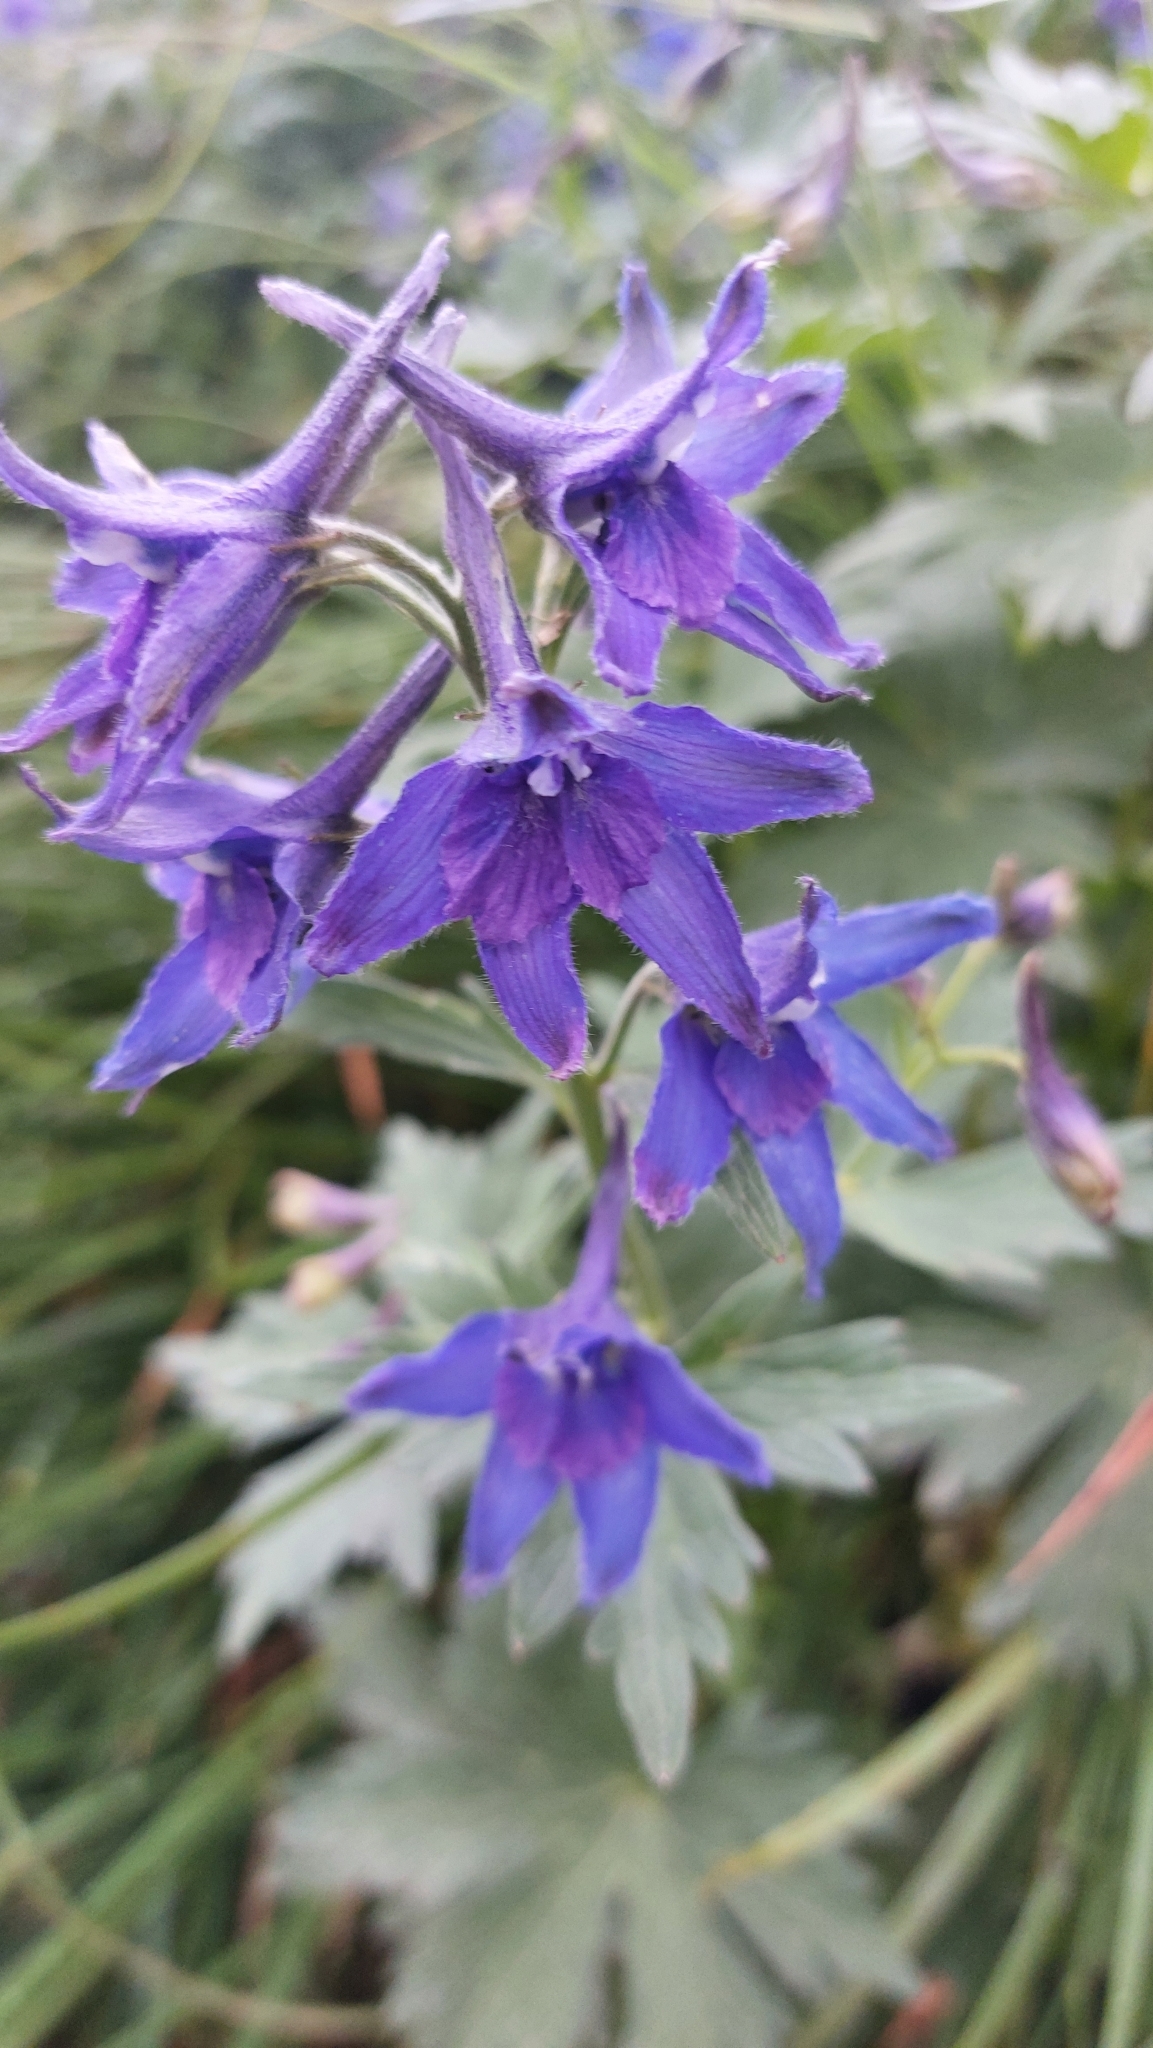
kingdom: Plantae
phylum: Tracheophyta
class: Magnoliopsida
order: Ranunculales
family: Ranunculaceae
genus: Delphinium
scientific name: Delphinium brachycentrum
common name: Arctic larkspur
